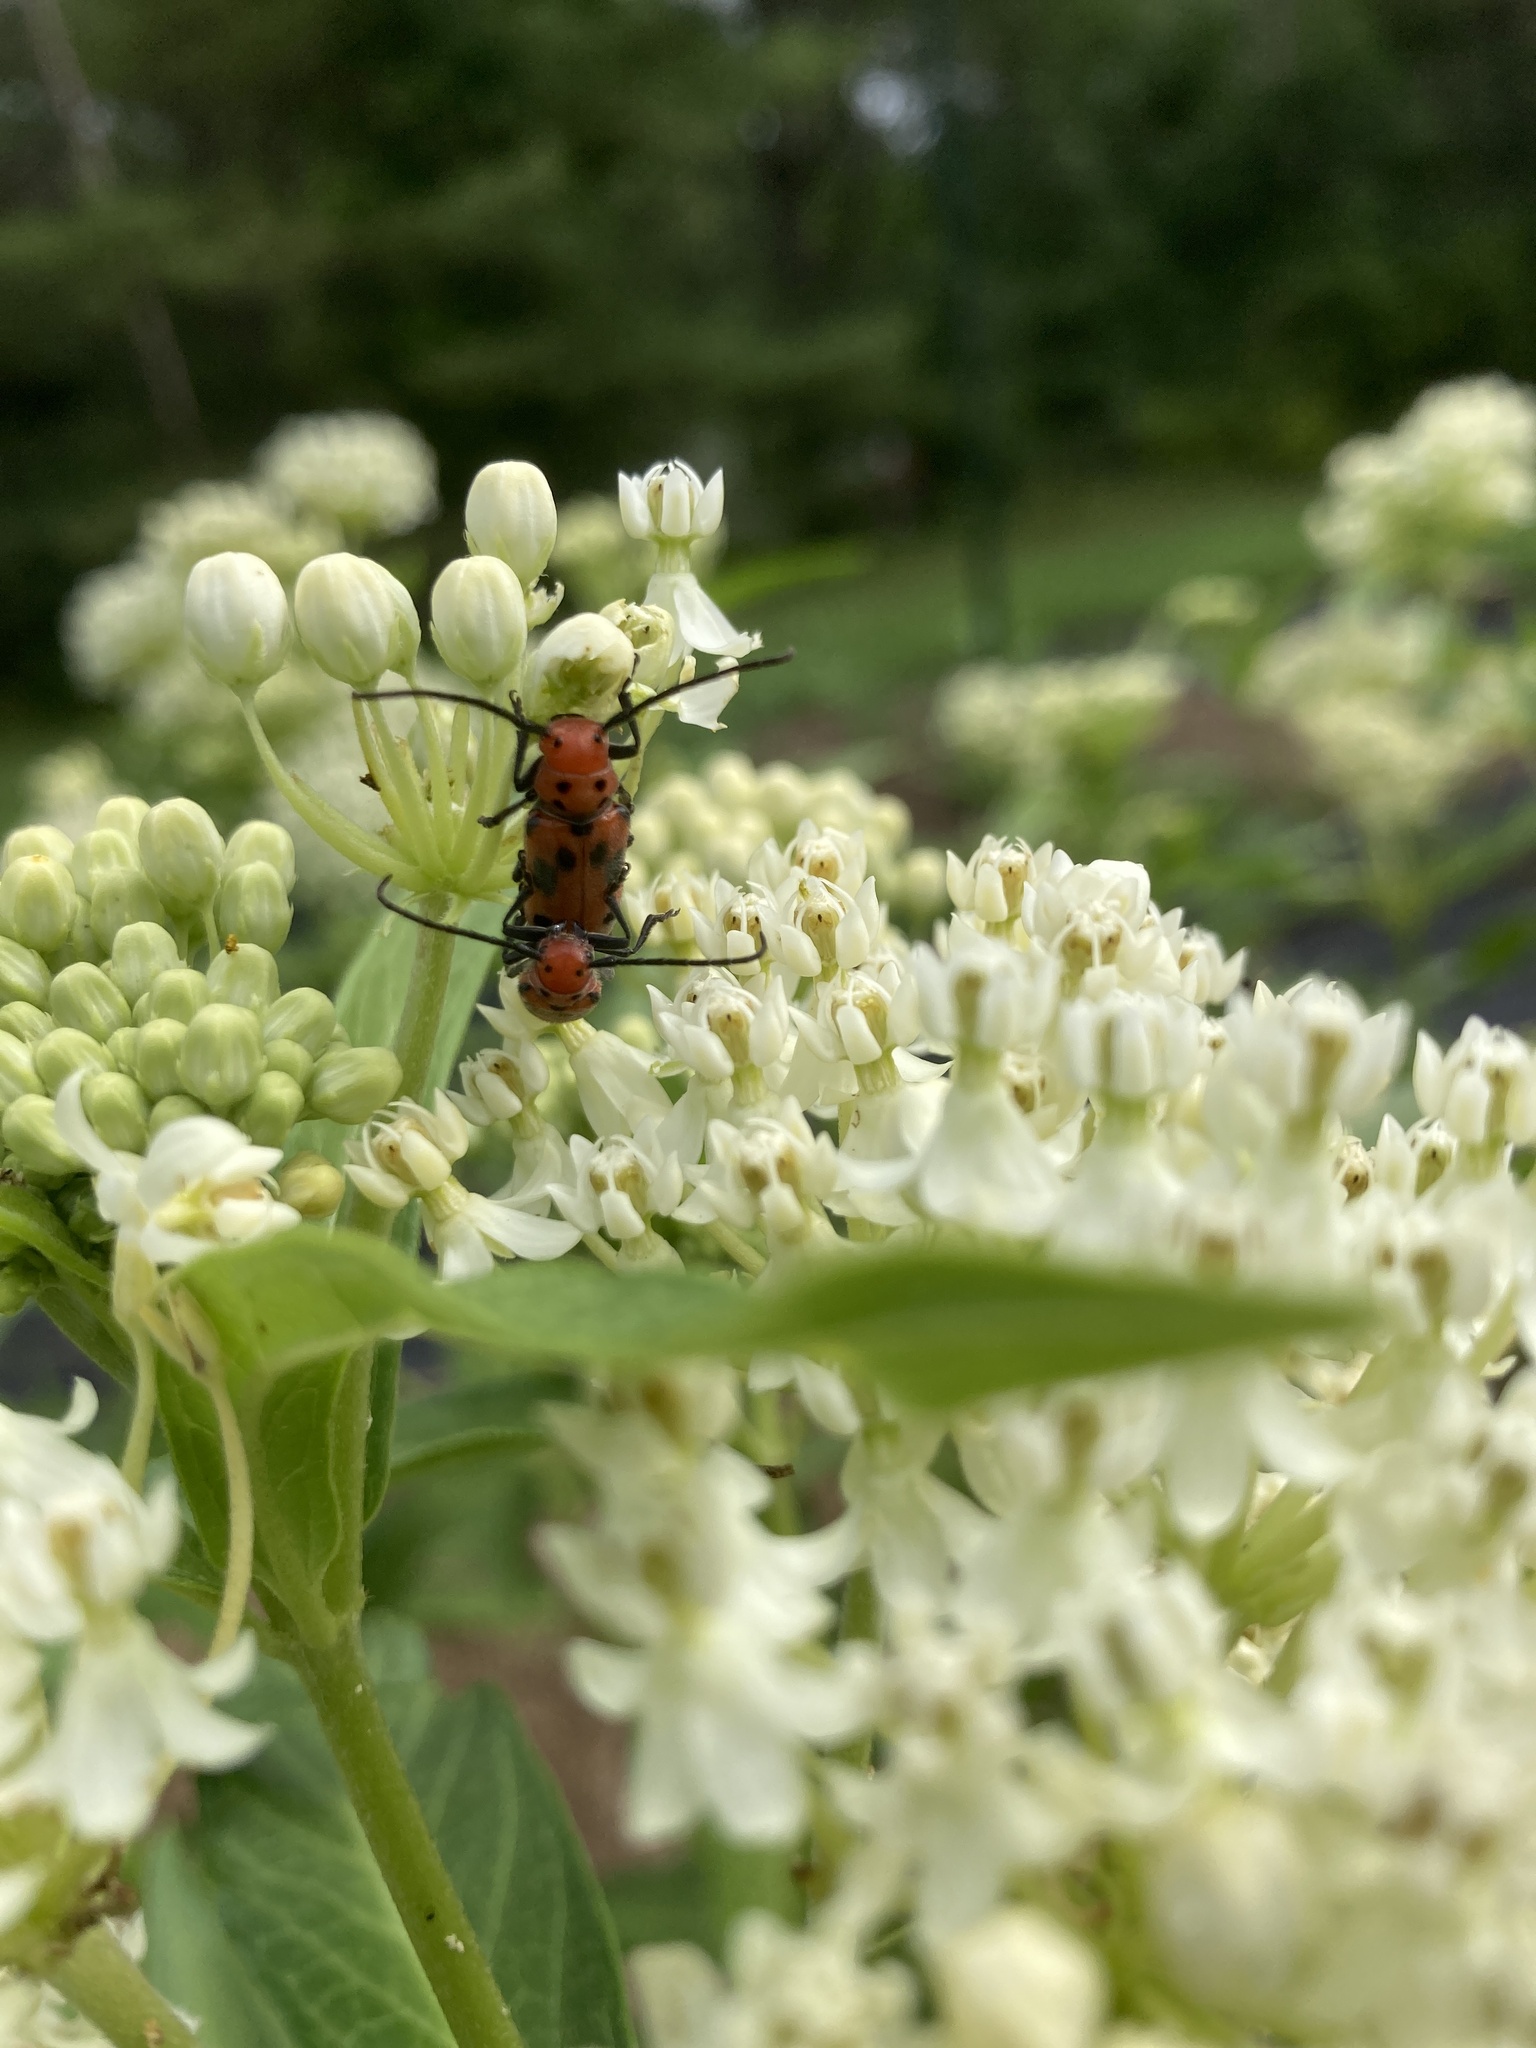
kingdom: Animalia
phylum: Arthropoda
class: Insecta
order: Coleoptera
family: Cerambycidae
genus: Tetraopes
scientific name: Tetraopes tetrophthalmus
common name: Red milkweed beetle
